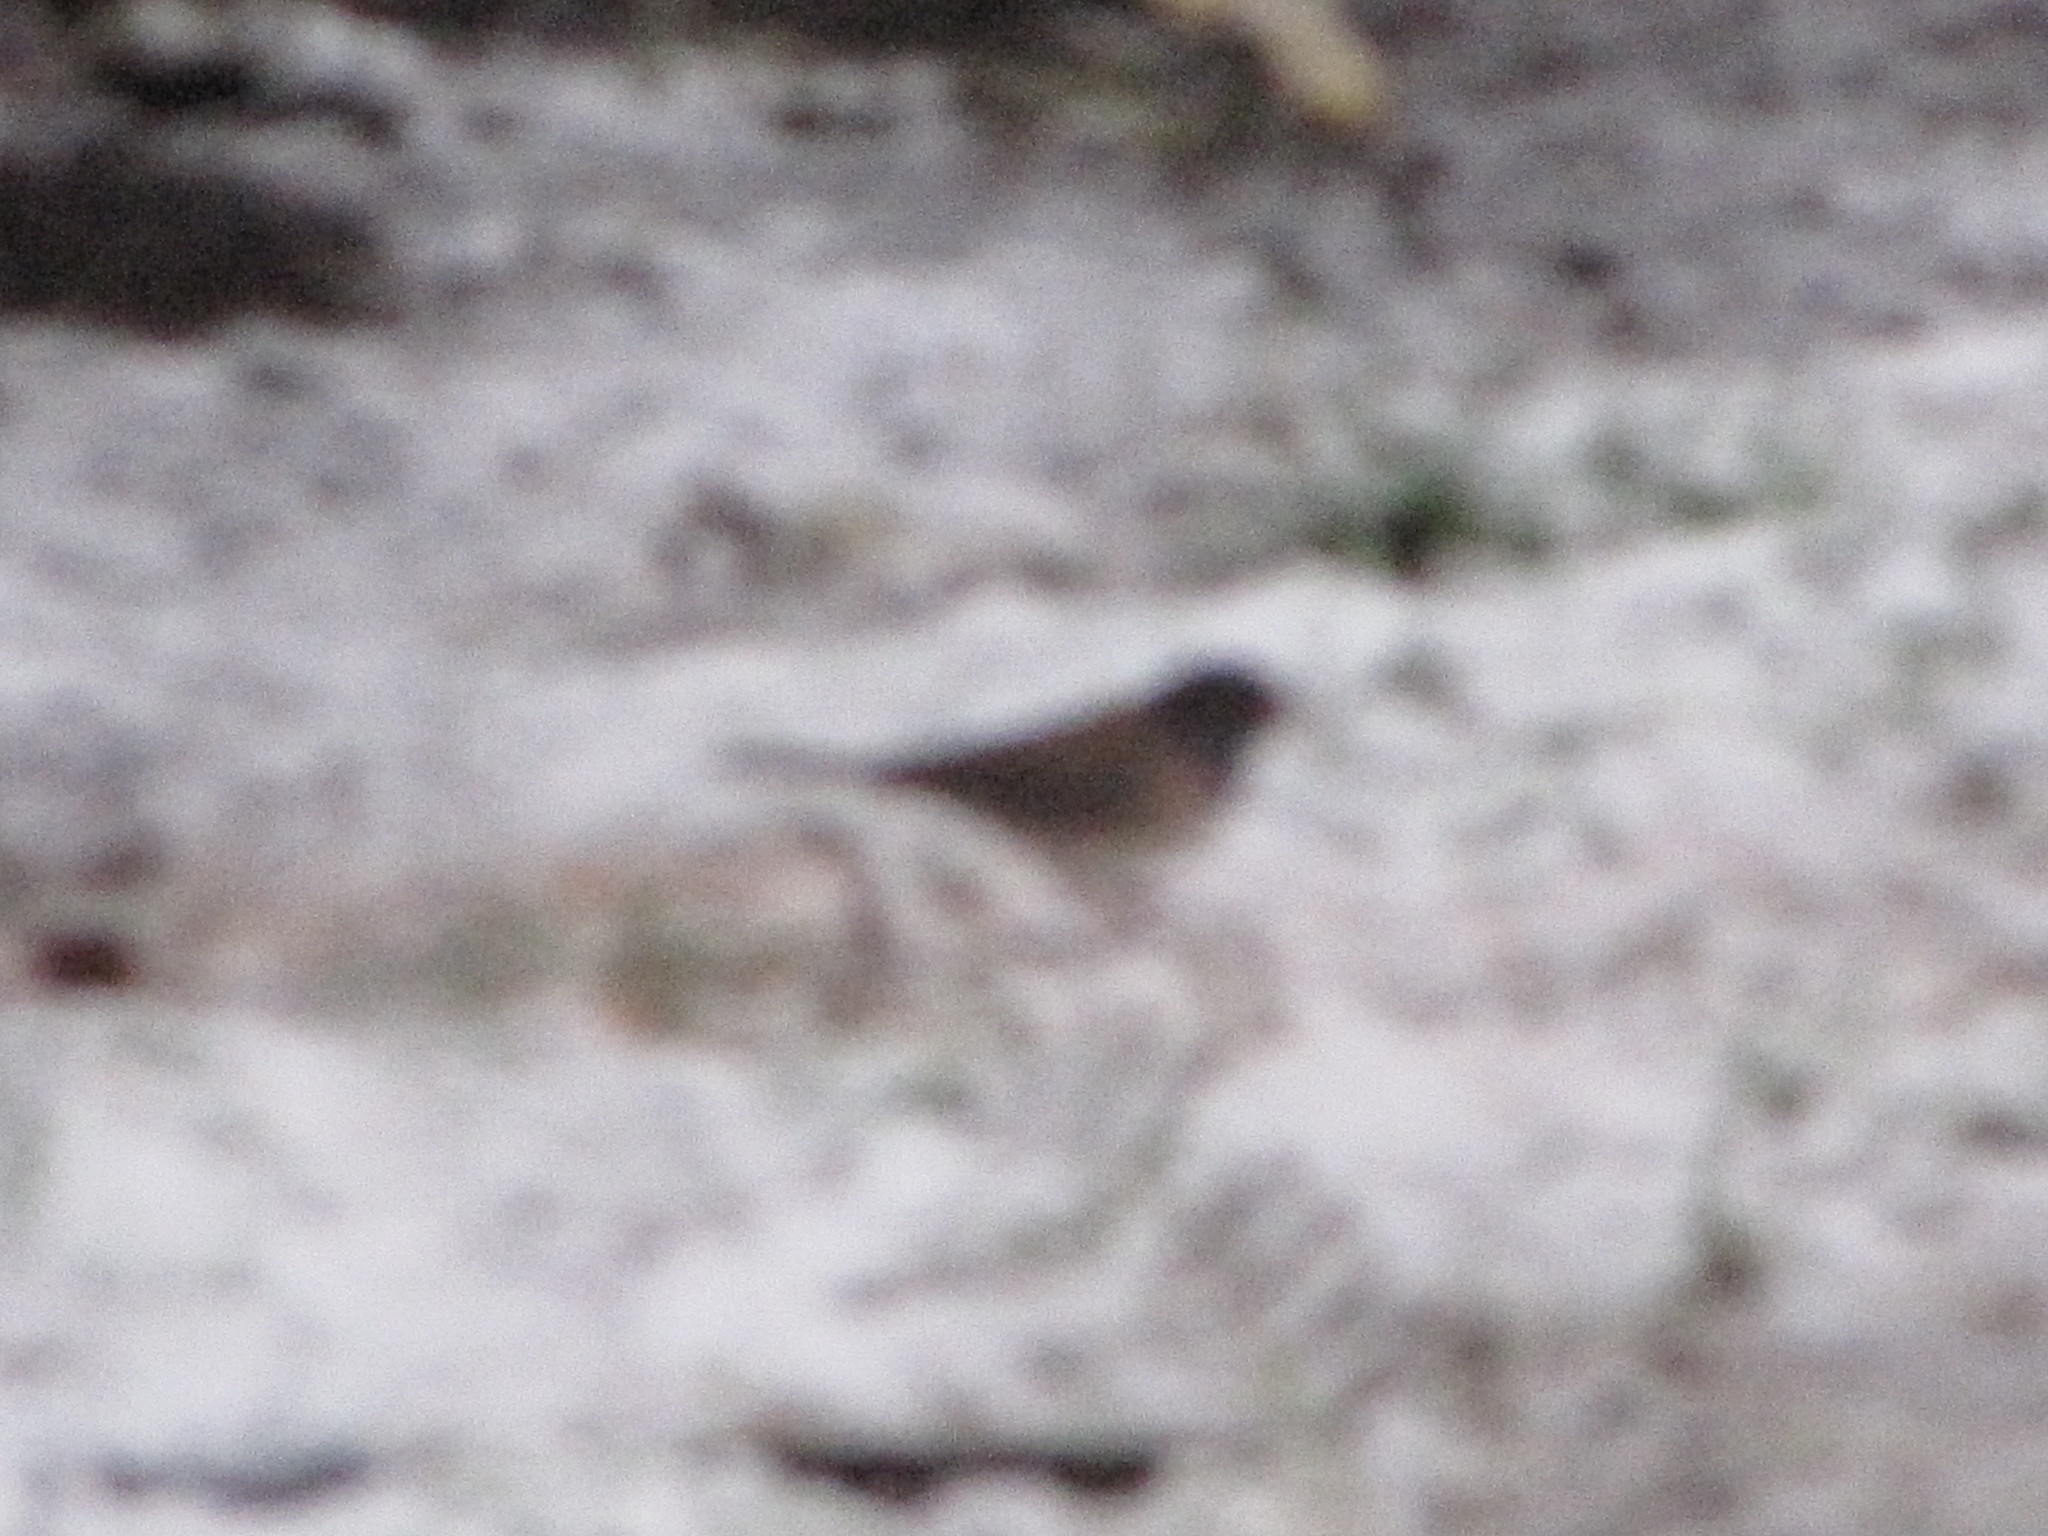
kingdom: Animalia
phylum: Chordata
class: Aves
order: Passeriformes
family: Passerellidae
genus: Junco
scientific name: Junco hyemalis
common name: Dark-eyed junco
